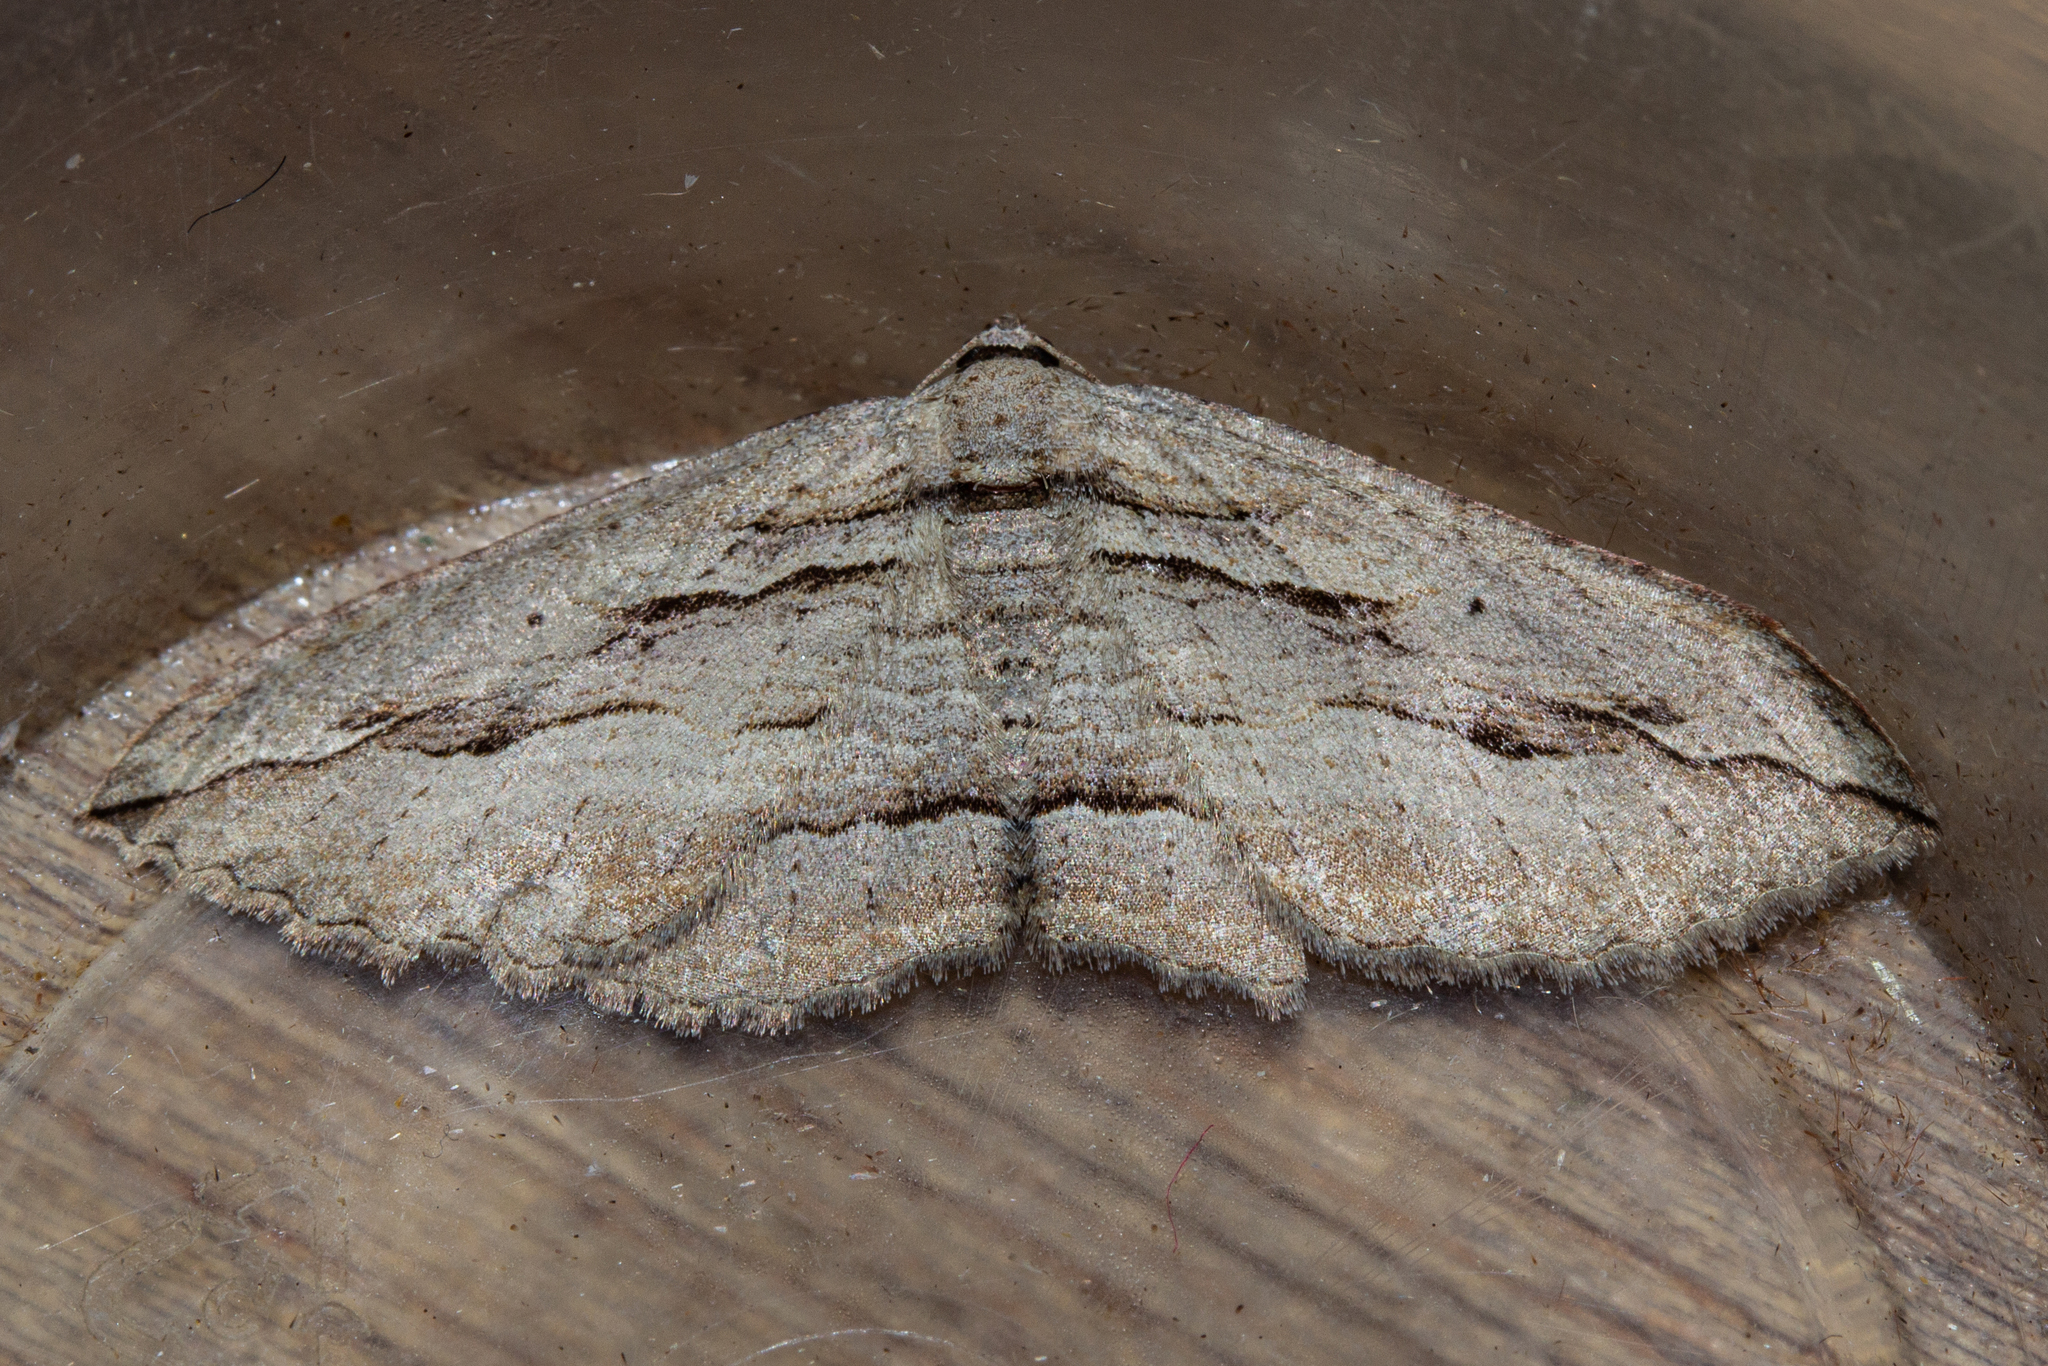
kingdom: Animalia
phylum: Arthropoda
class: Insecta
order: Lepidoptera
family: Geometridae
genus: Austrocidaria
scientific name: Austrocidaria gobiata
